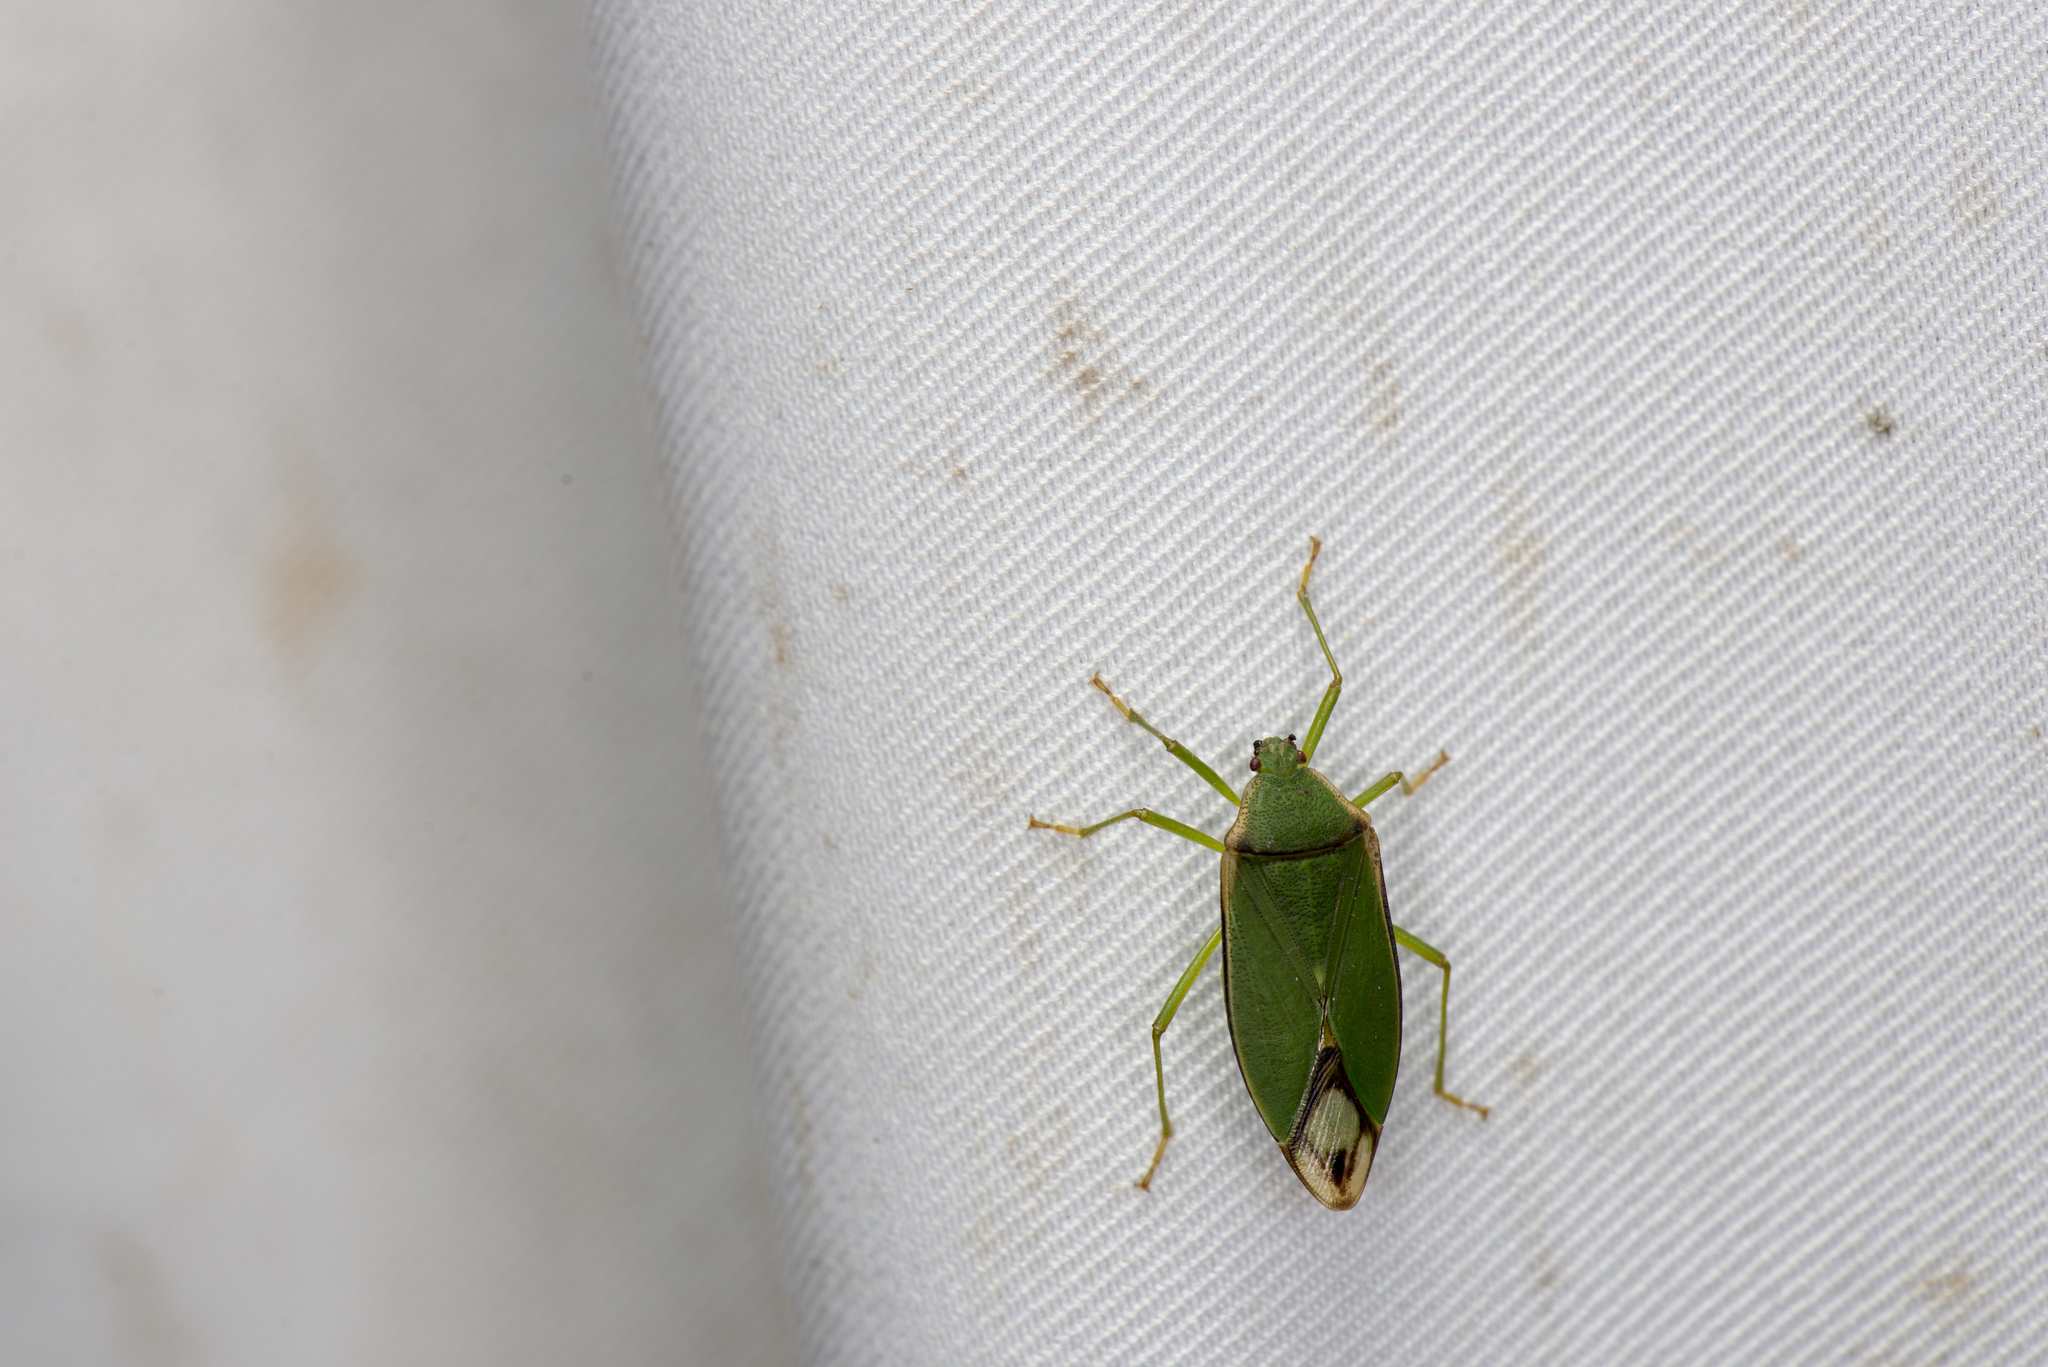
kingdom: Animalia
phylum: Arthropoda
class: Insecta
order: Hemiptera
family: Urostylididae
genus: Urolabida
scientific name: Urolabida lobopleuralis
